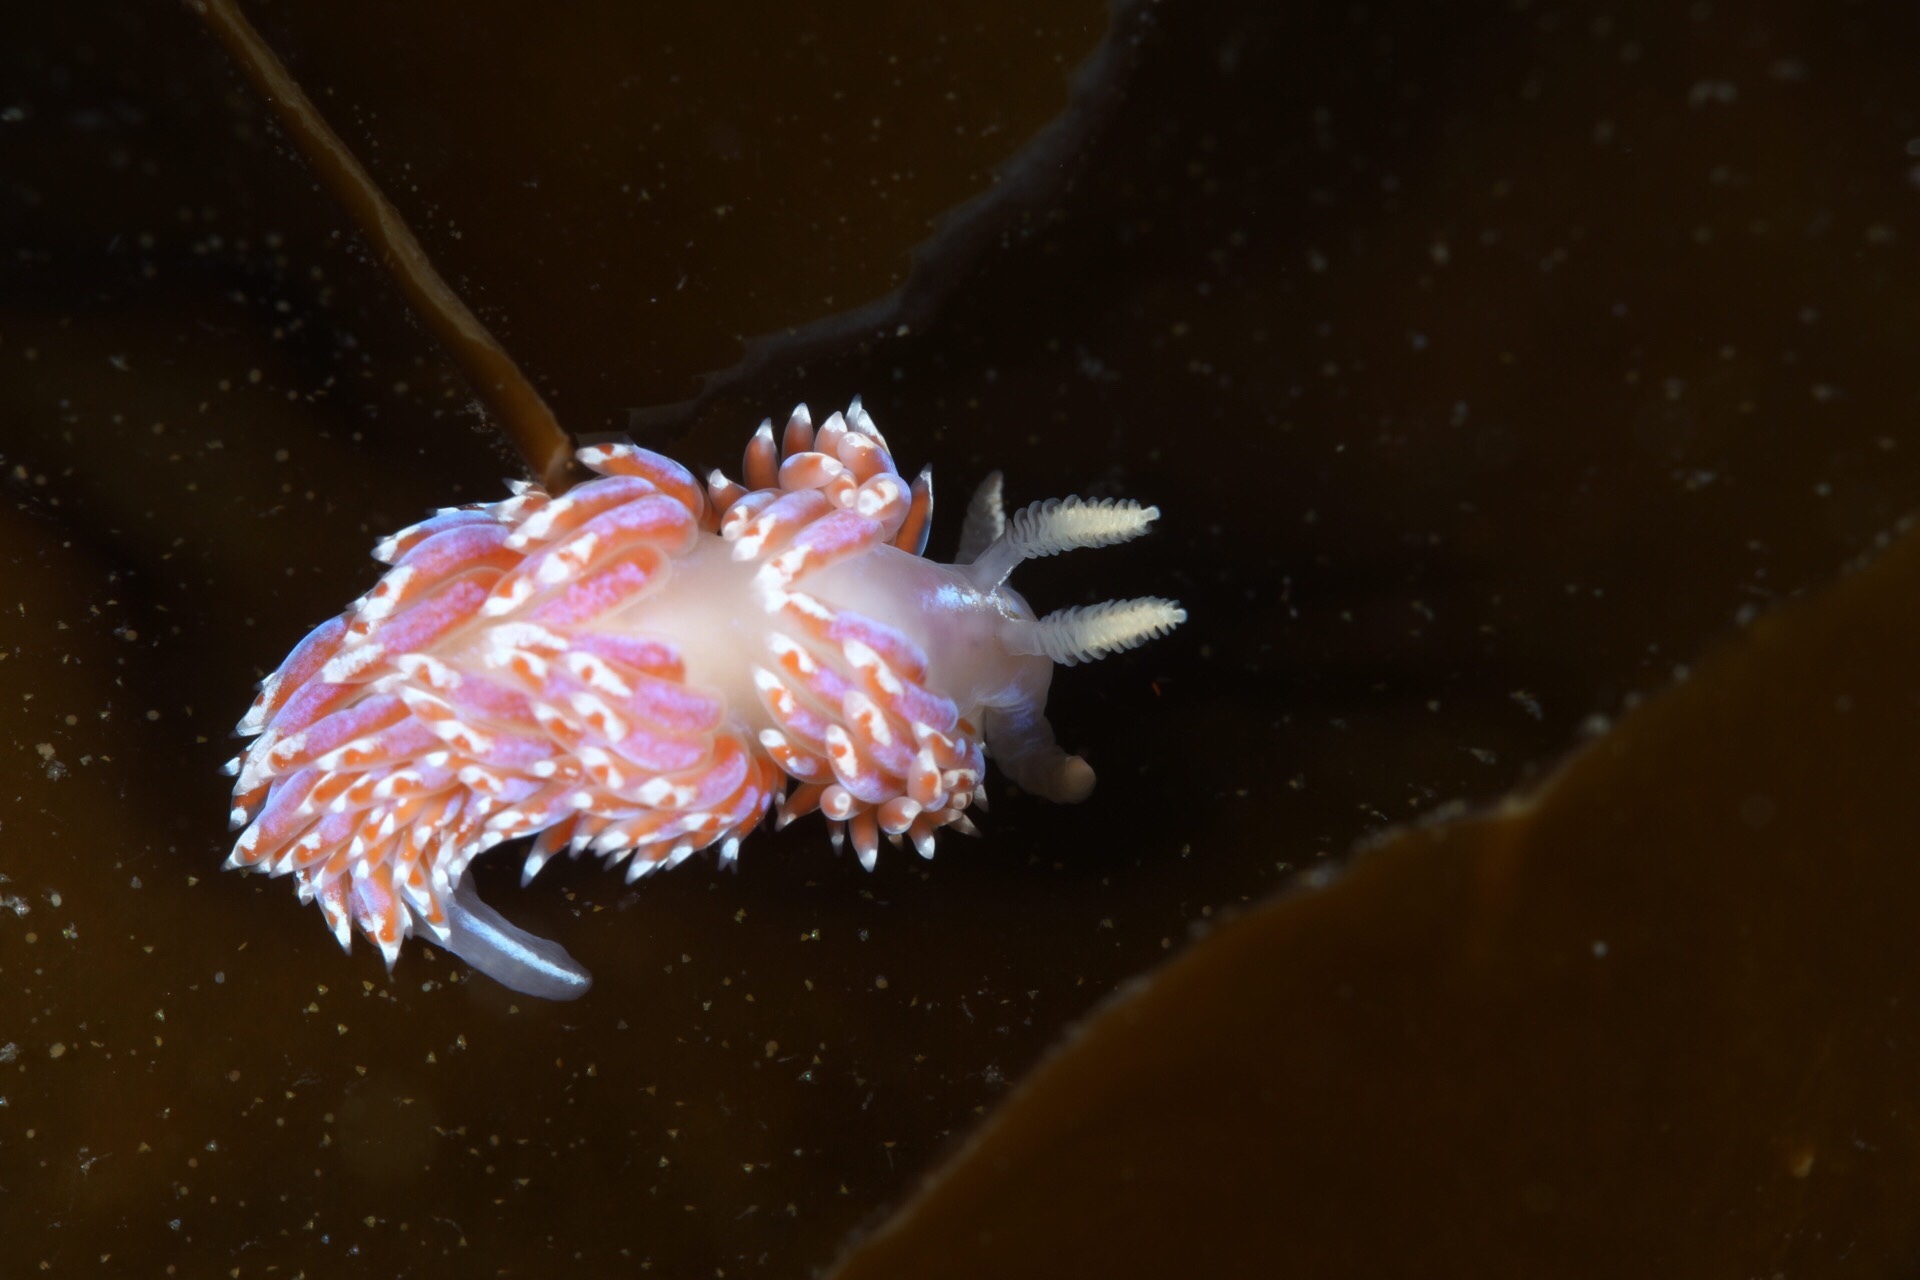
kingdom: Animalia
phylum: Mollusca
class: Gastropoda
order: Nudibranchia
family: Facelinidae
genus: Facelina
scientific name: Facelina auriculata
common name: Slender facelina
